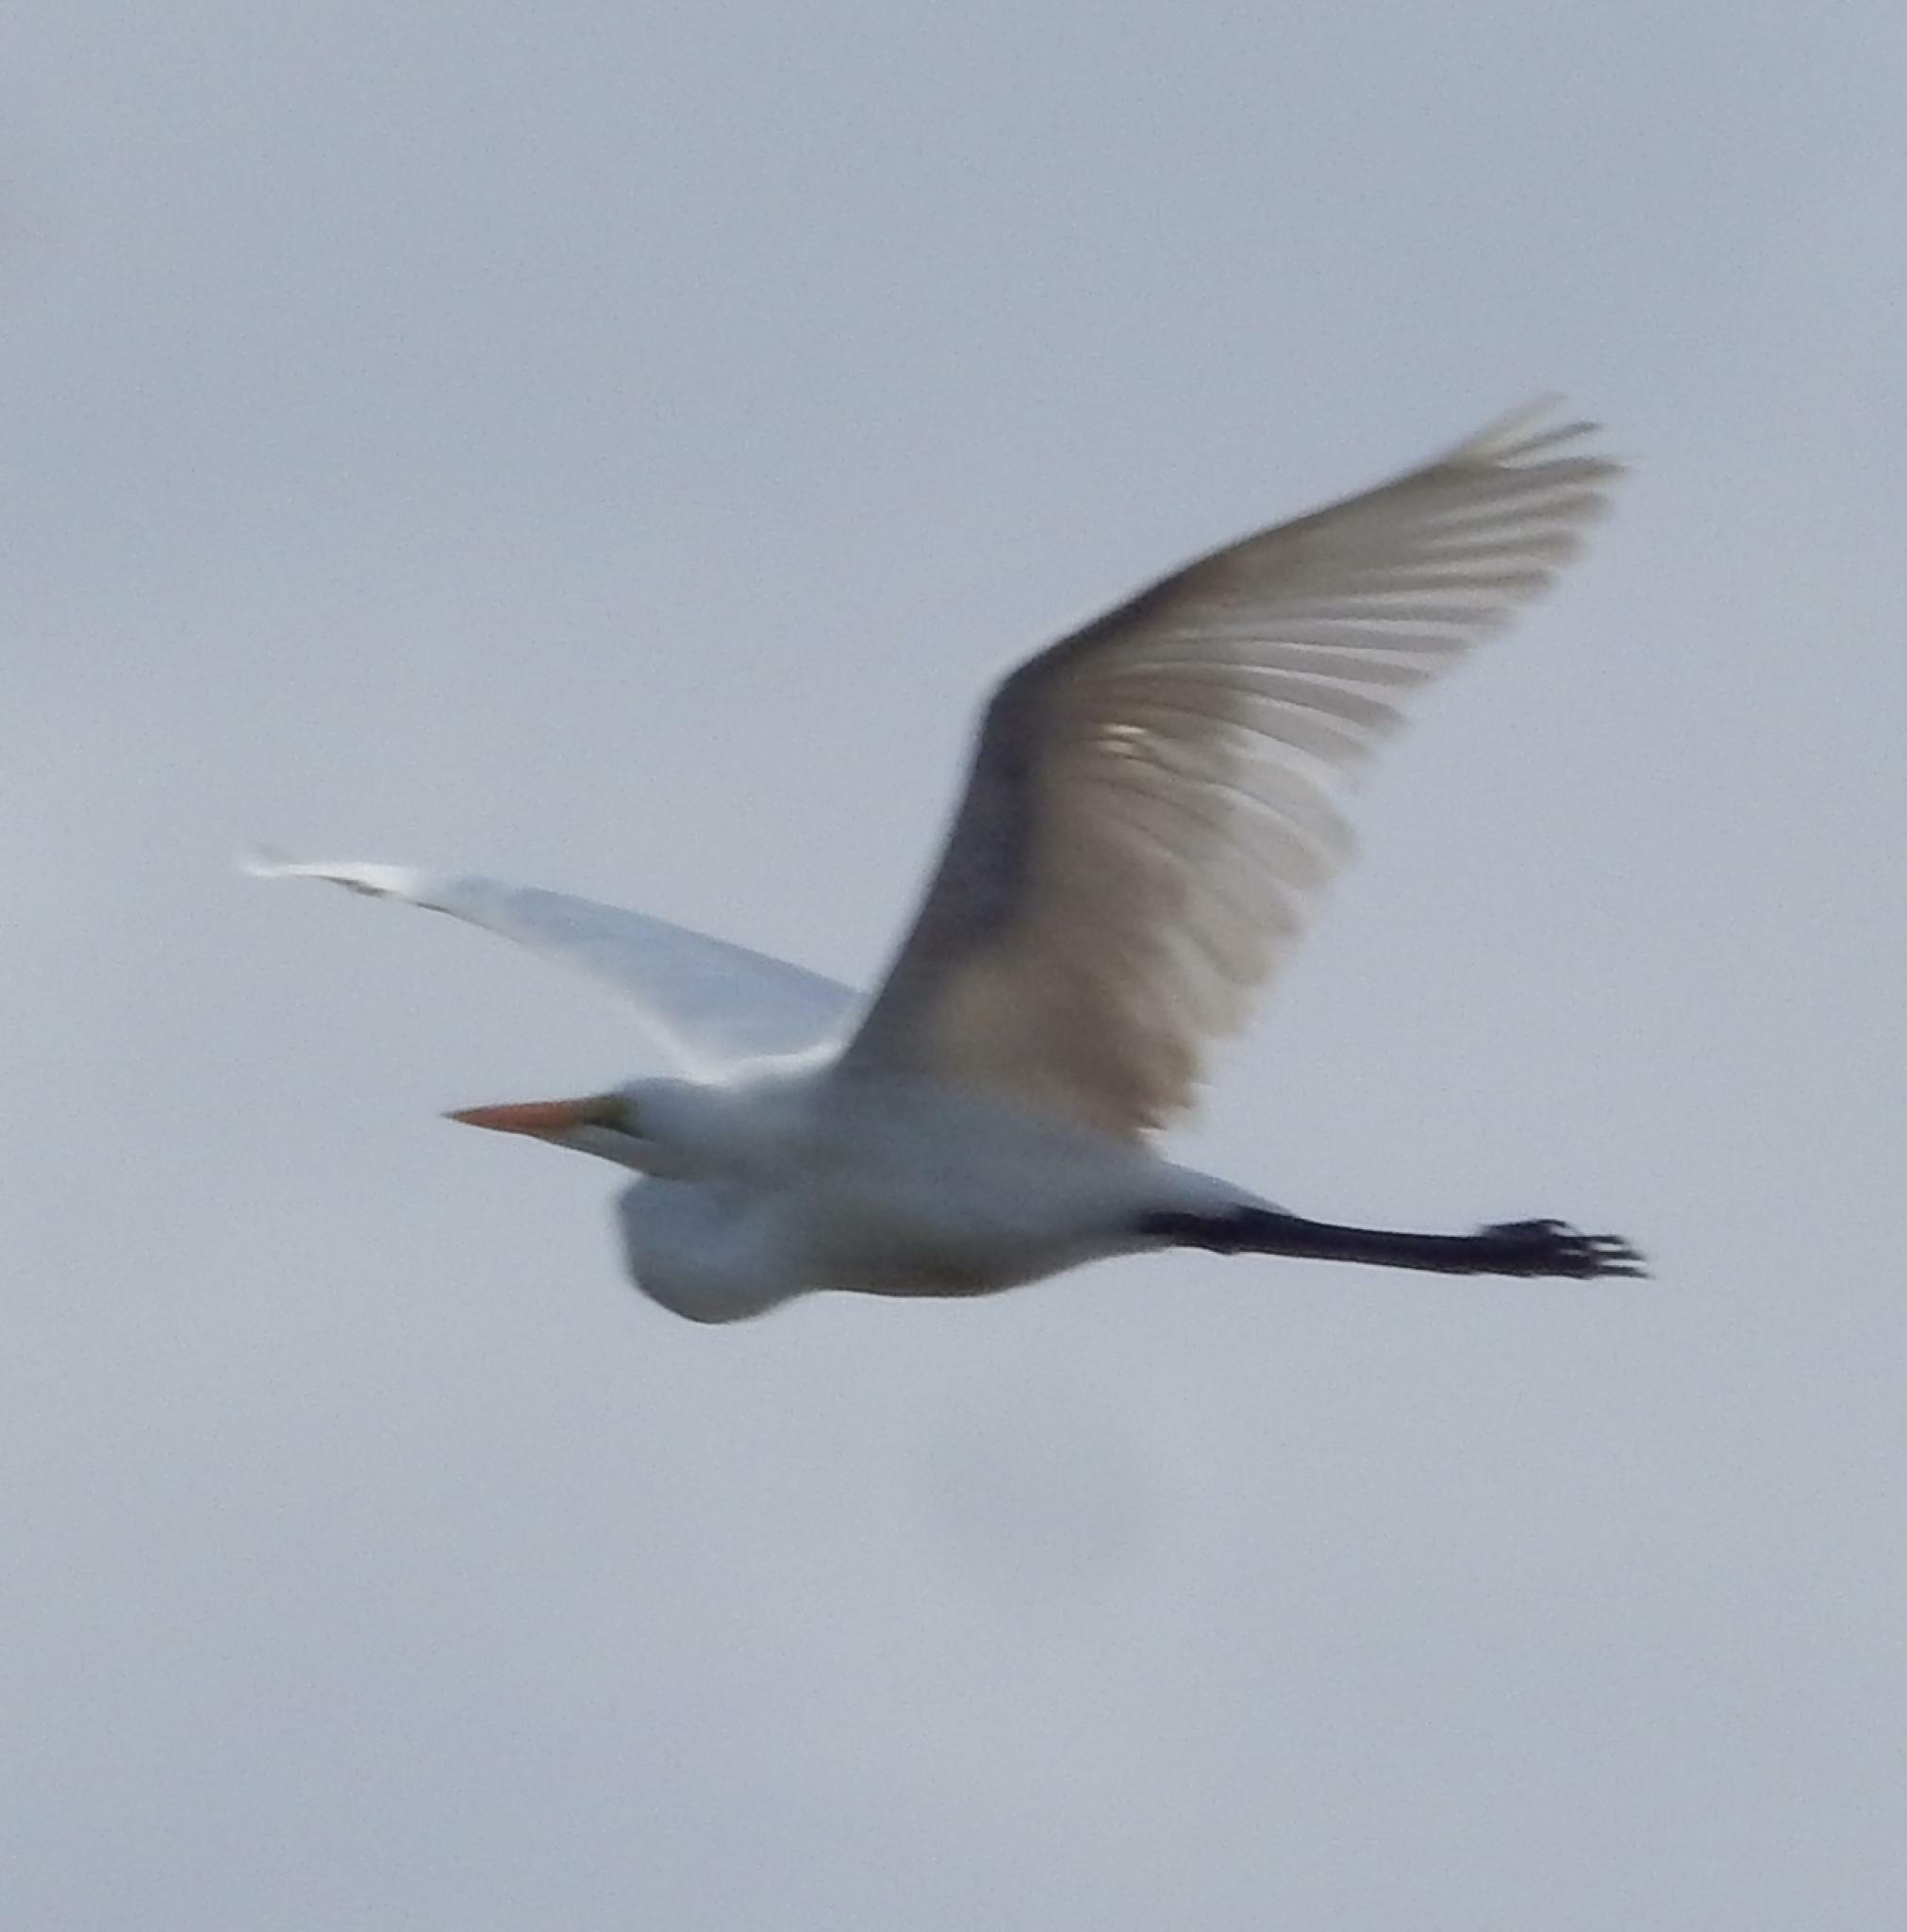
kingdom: Animalia
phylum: Chordata
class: Aves
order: Pelecaniformes
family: Ardeidae
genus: Ardea
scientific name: Ardea alba
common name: Great egret
